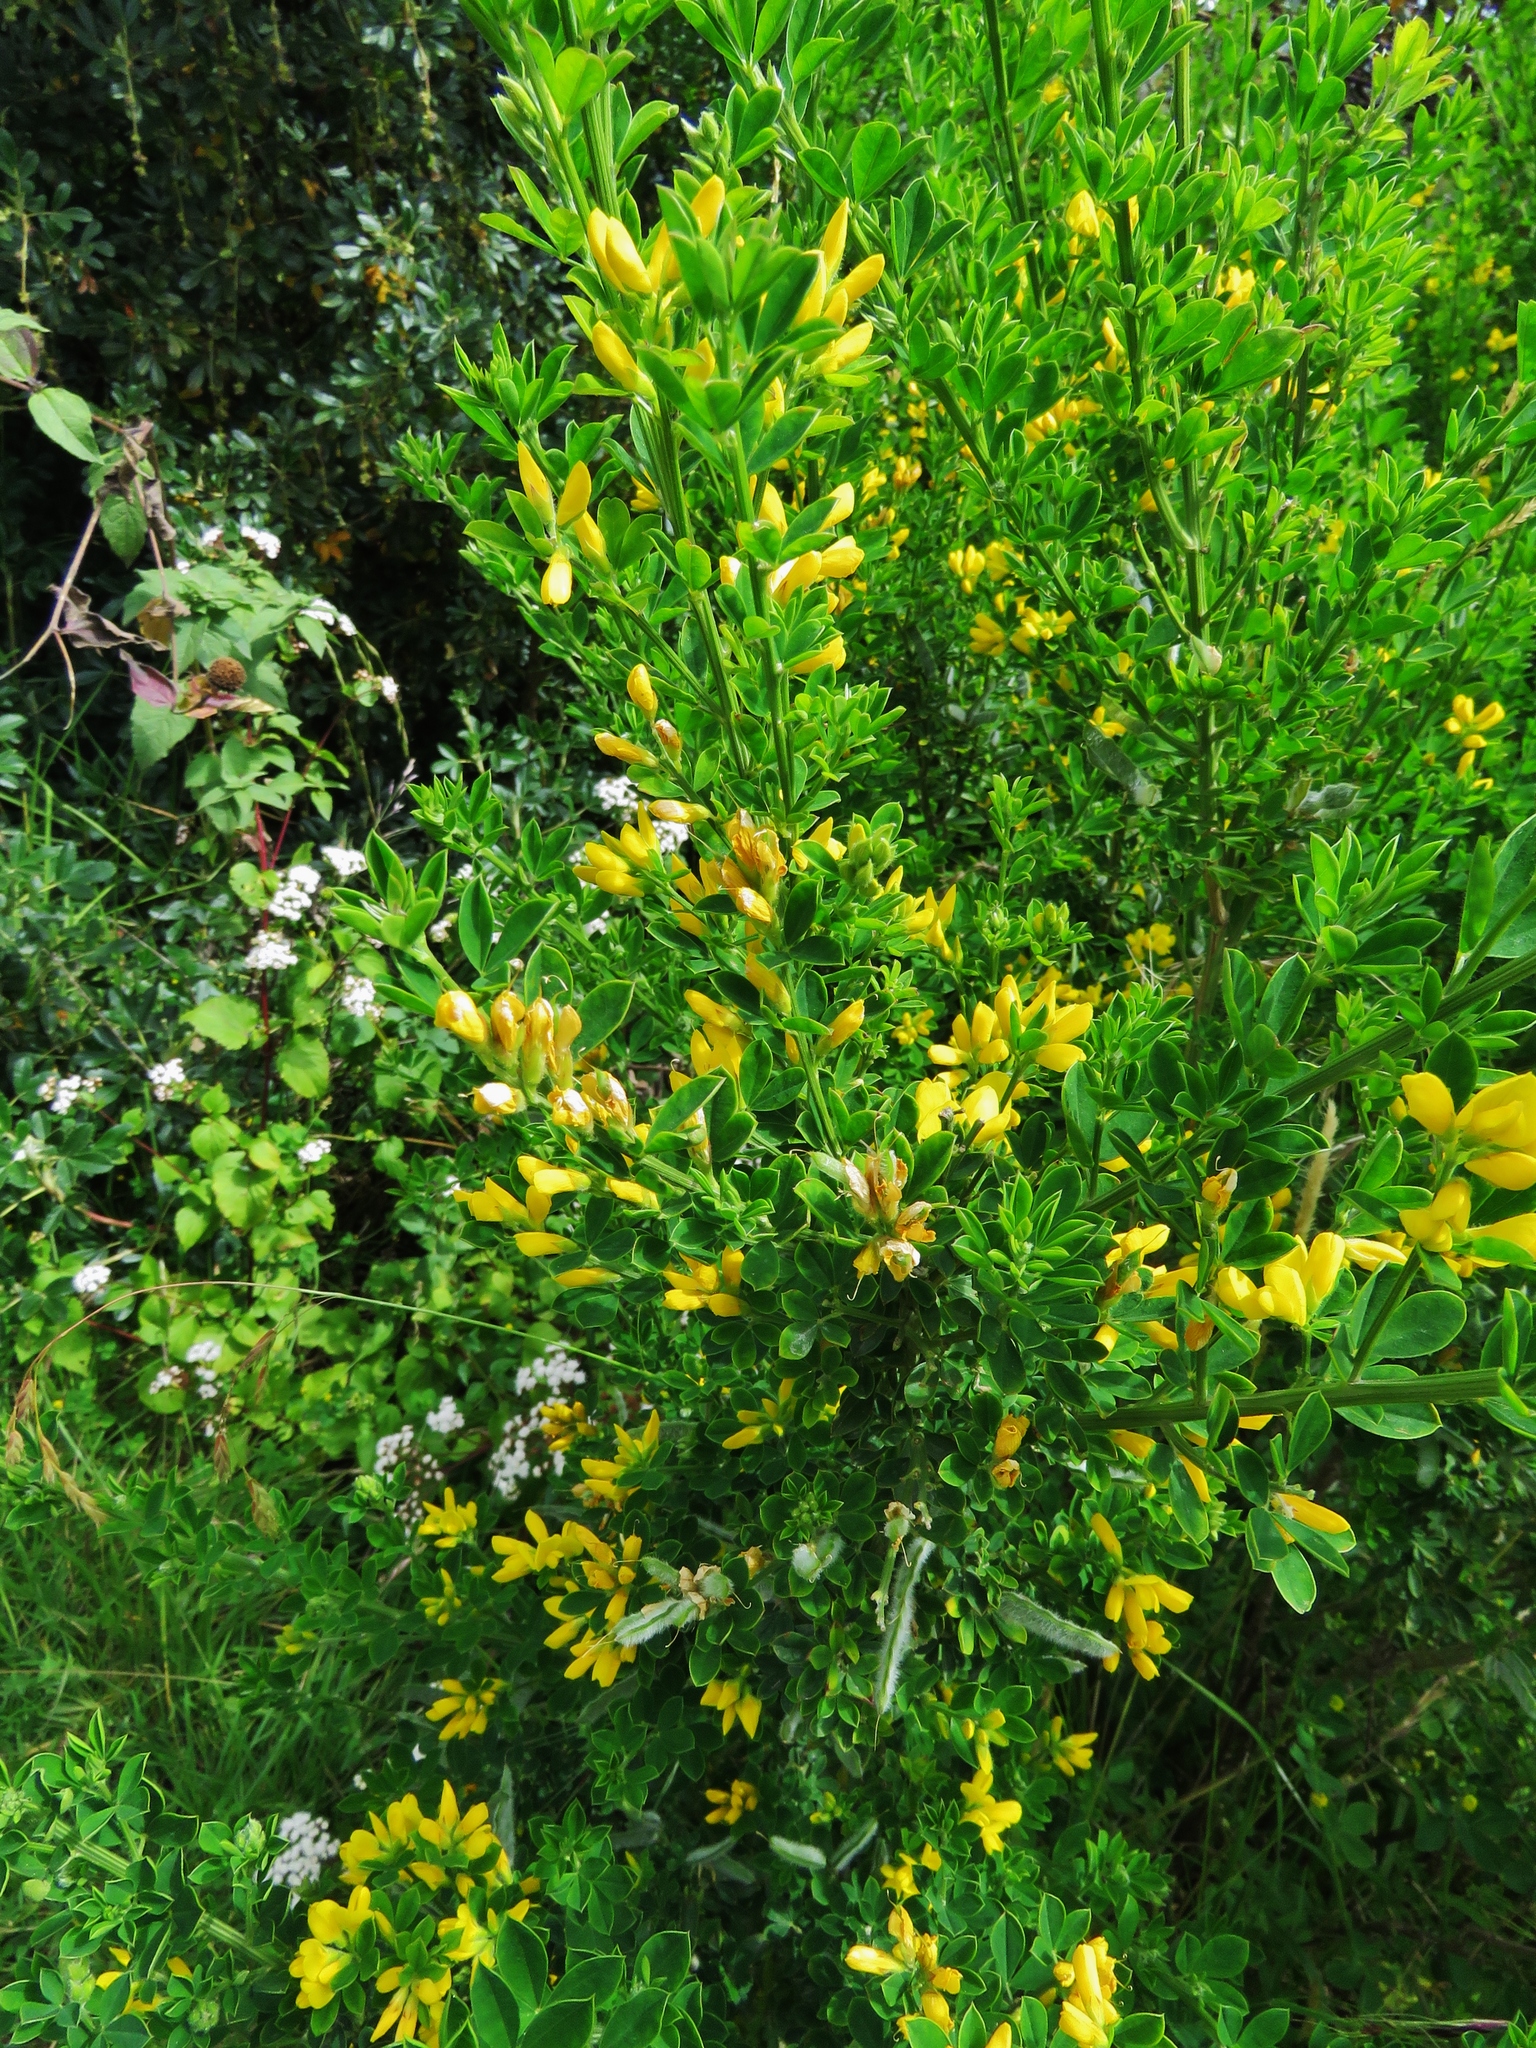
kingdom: Plantae
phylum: Tracheophyta
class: Magnoliopsida
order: Fabales
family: Fabaceae
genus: Genista
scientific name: Genista monspessulana
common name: Montpellier broom
